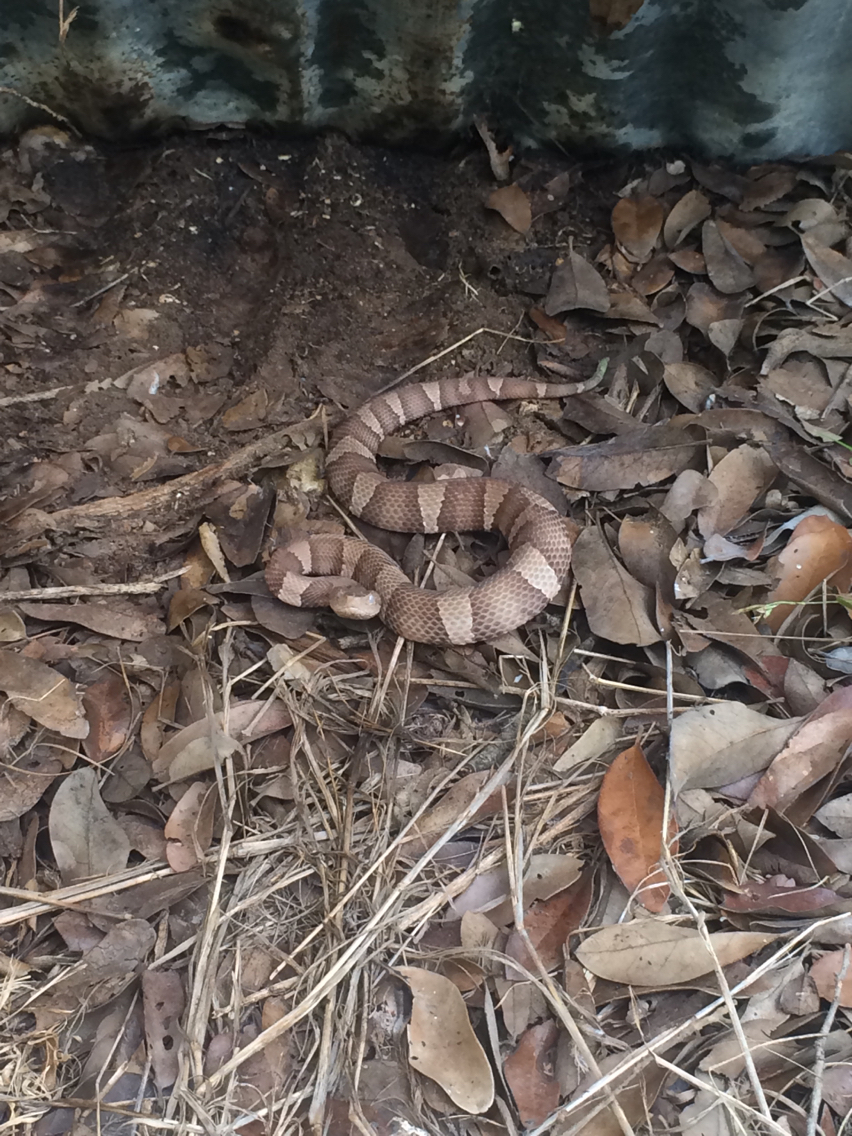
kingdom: Animalia
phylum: Chordata
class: Squamata
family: Viperidae
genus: Agkistrodon
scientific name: Agkistrodon laticinctus
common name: Broad-banded copperhead
